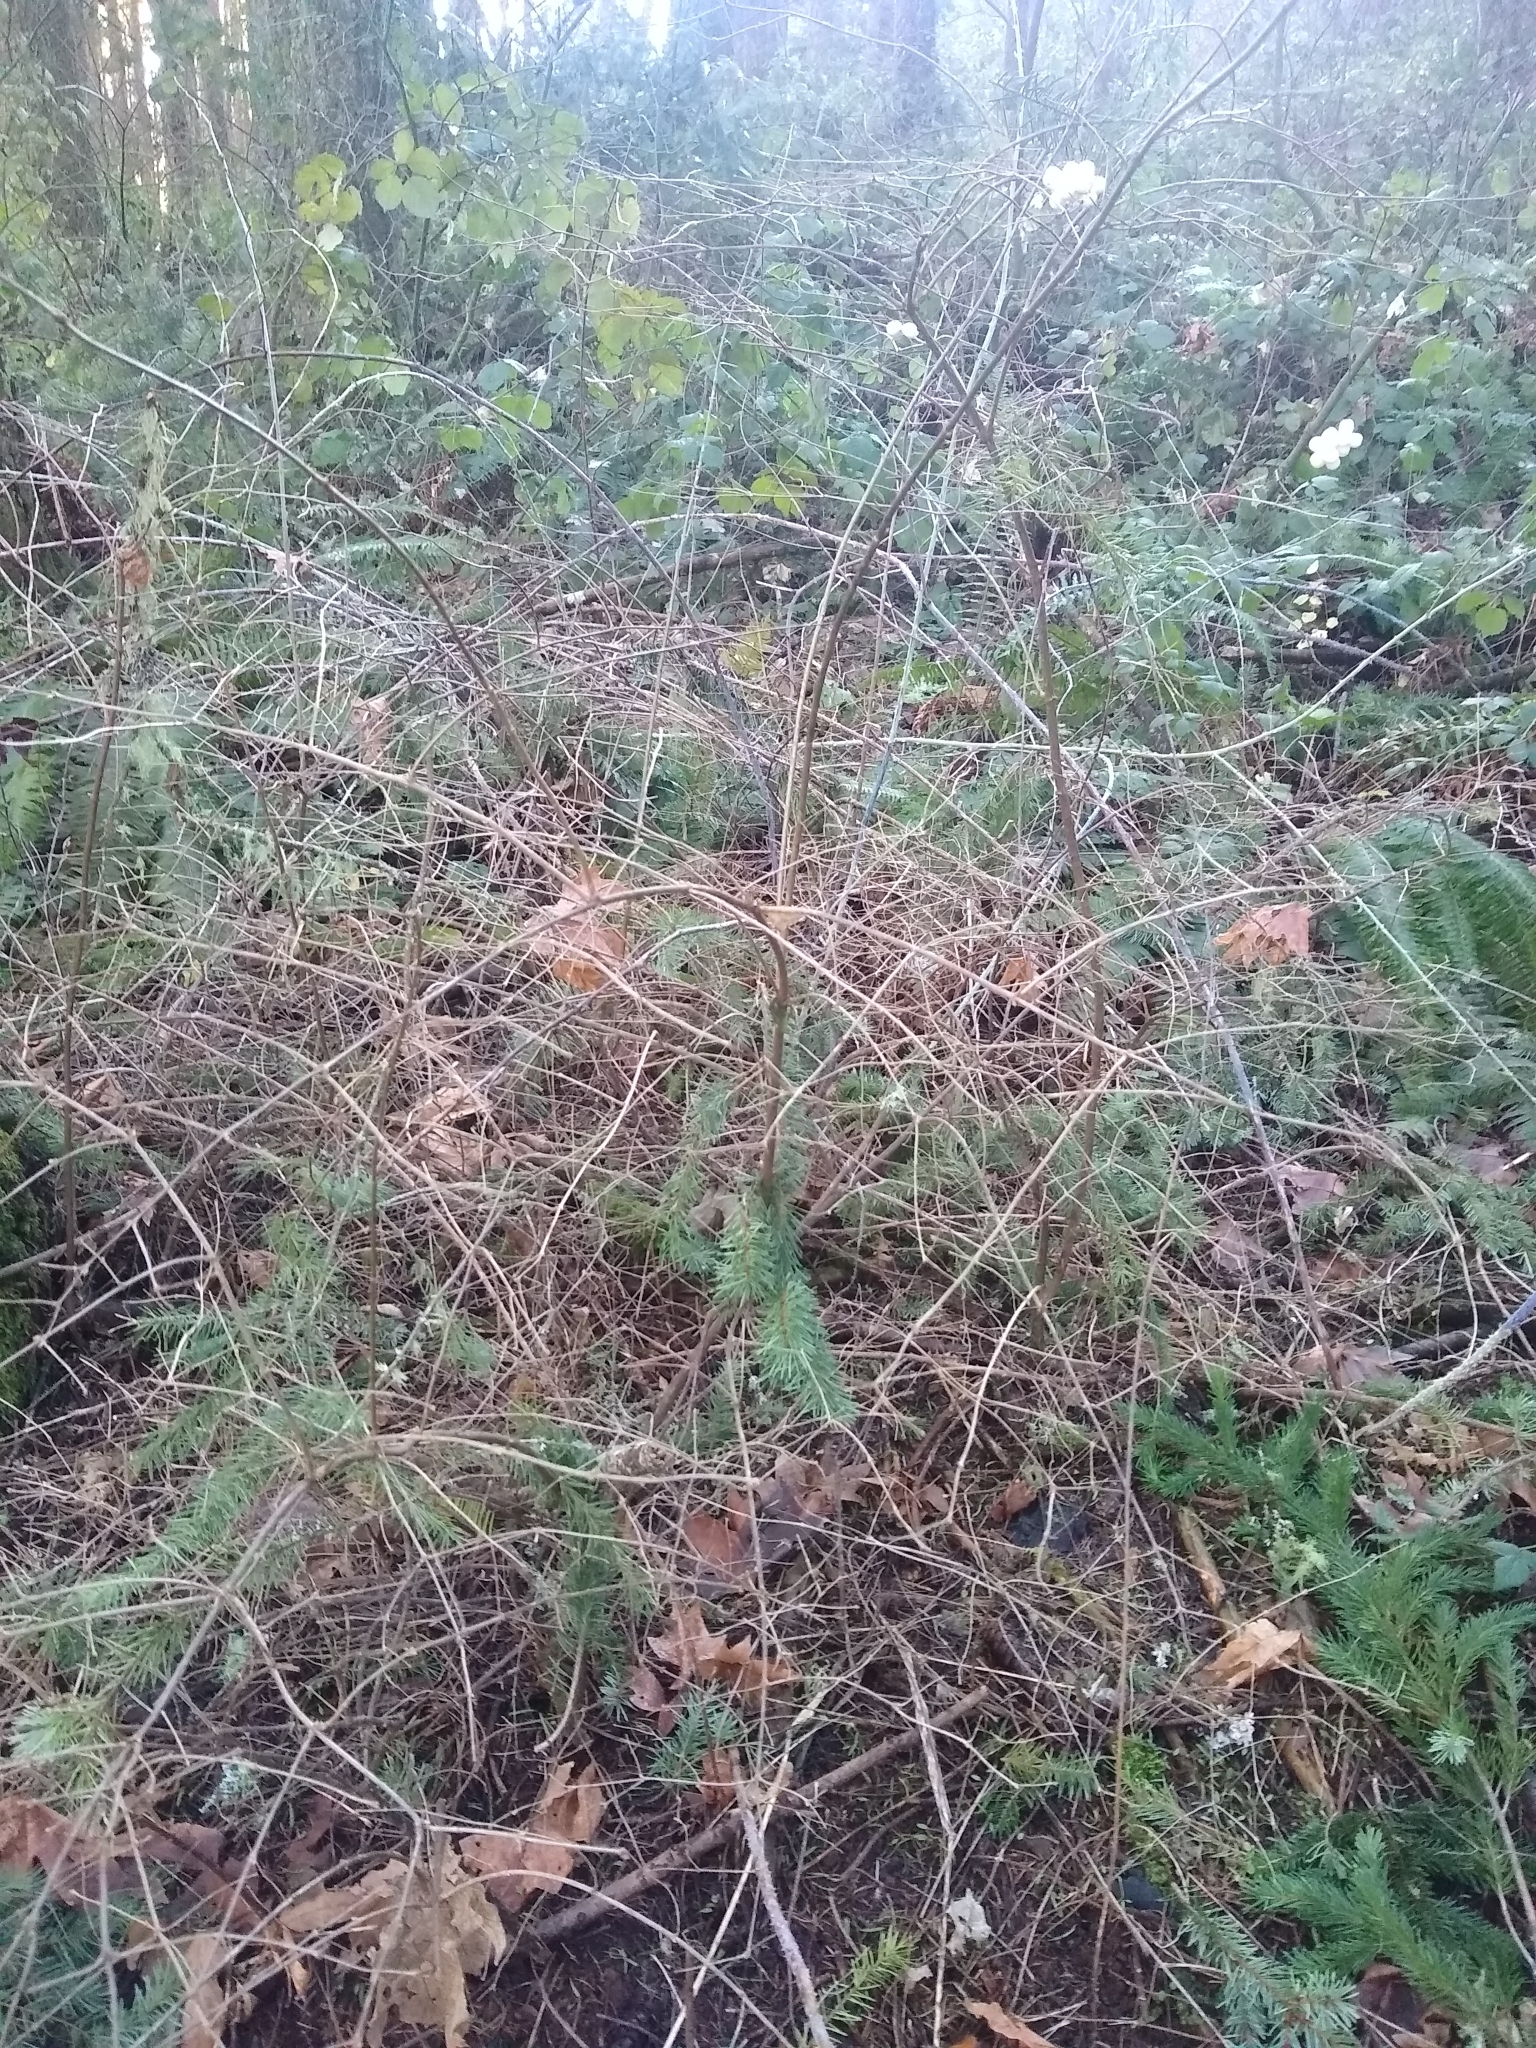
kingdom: Plantae
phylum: Tracheophyta
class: Magnoliopsida
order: Dipsacales
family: Caprifoliaceae
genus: Symphoricarpos
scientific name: Symphoricarpos albus
